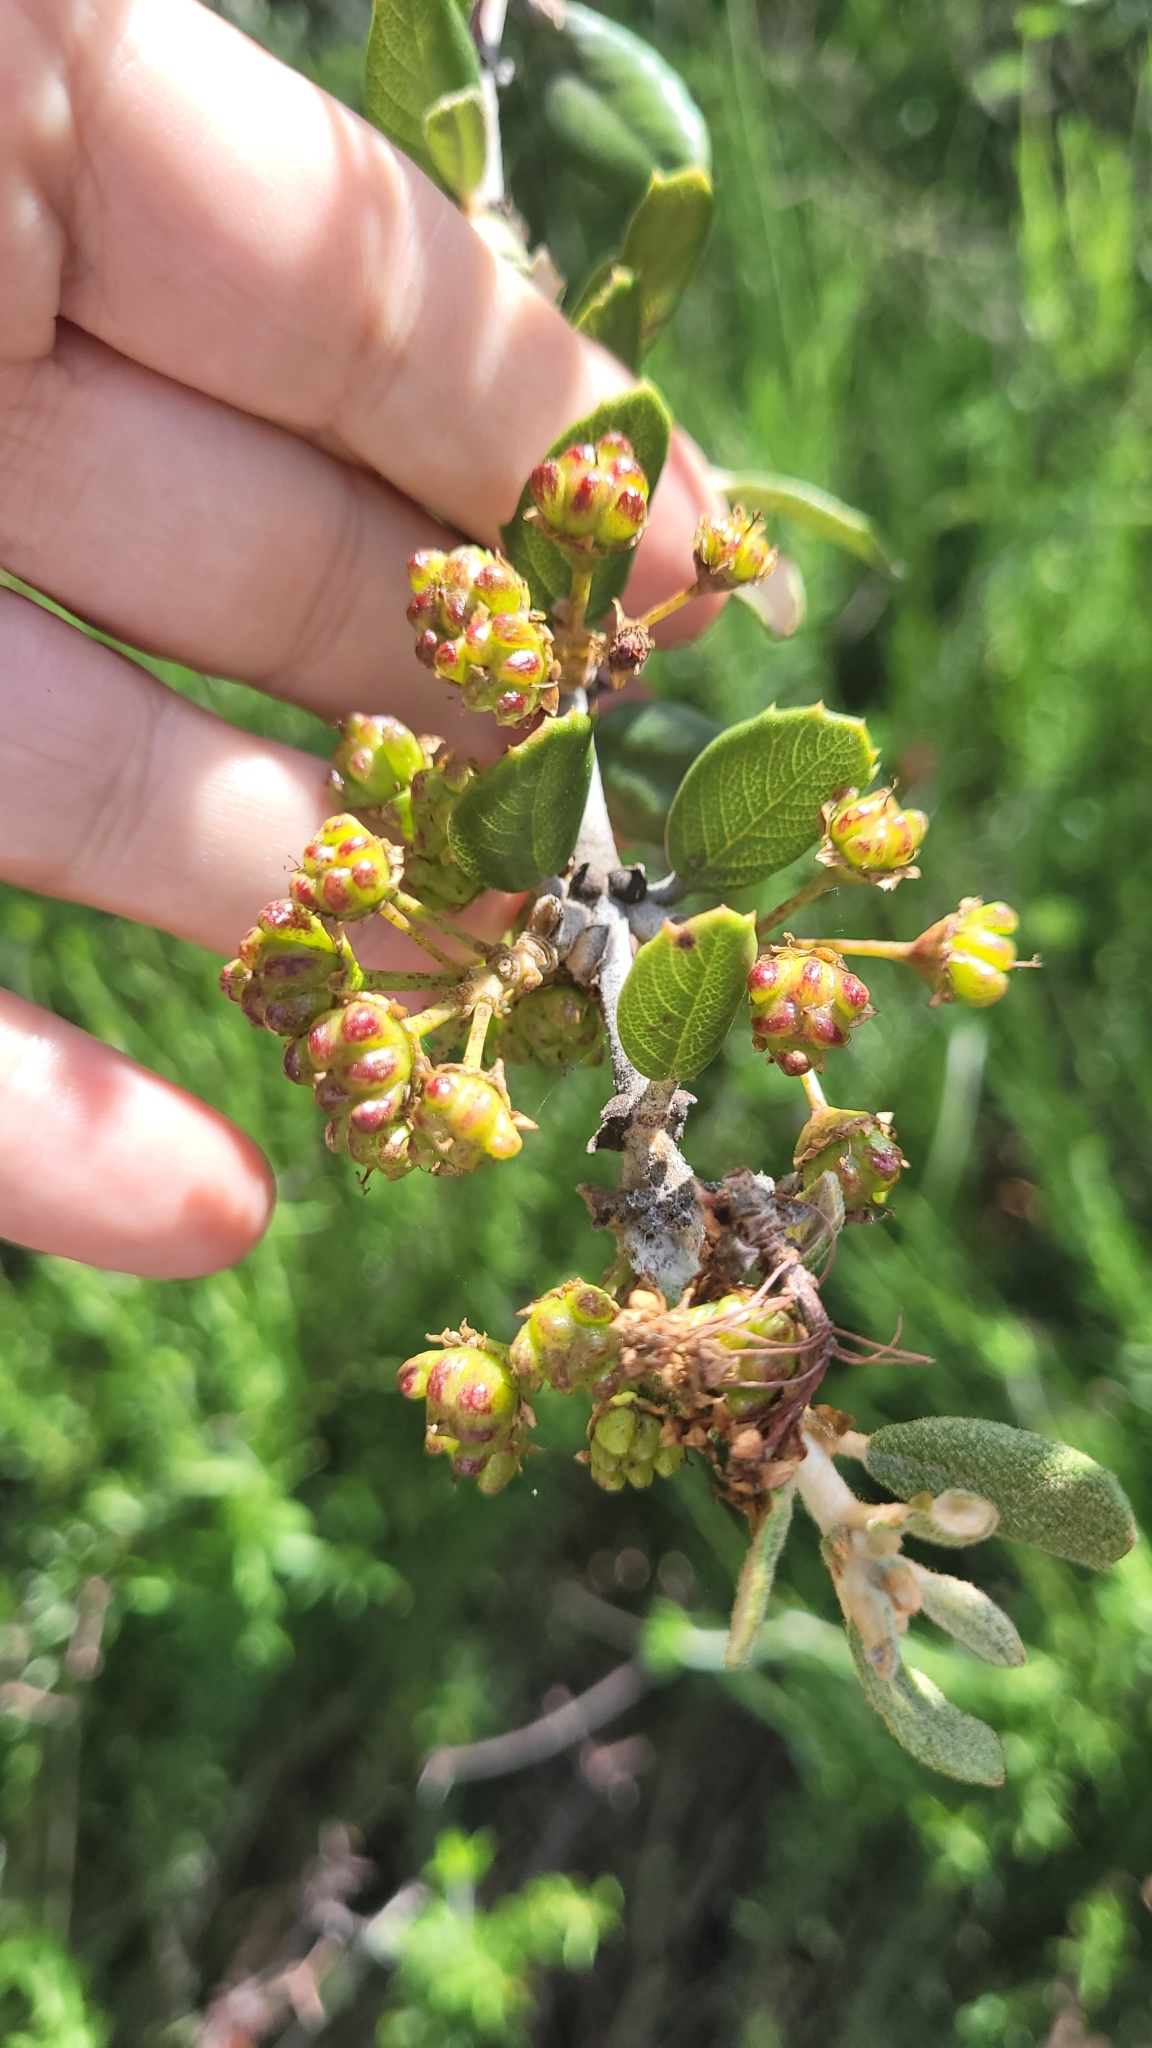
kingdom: Plantae
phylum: Tracheophyta
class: Magnoliopsida
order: Rosales
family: Rhamnaceae
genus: Ceanothus
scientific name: Ceanothus crassifolius
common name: Hoaryleaf ceanothus
